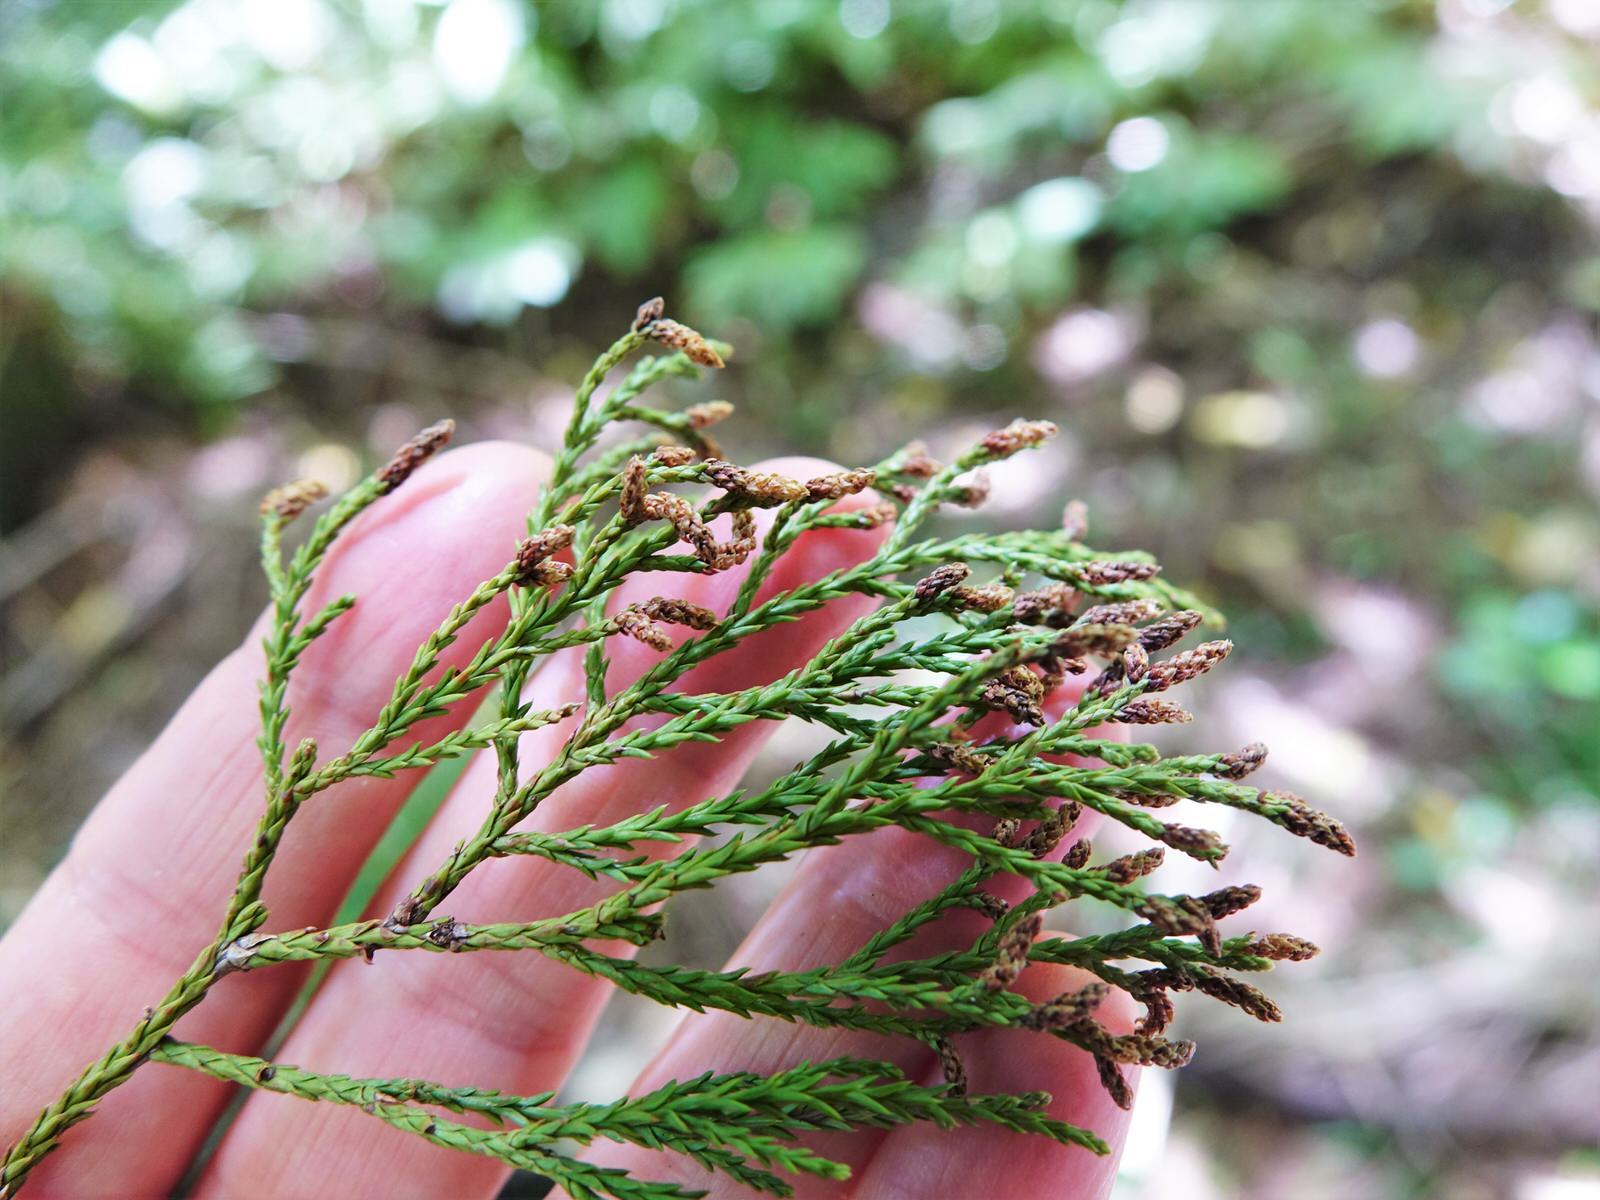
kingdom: Plantae
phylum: Tracheophyta
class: Pinopsida
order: Pinales
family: Podocarpaceae
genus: Dacrycarpus
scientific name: Dacrycarpus dacrydioides
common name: White pine
